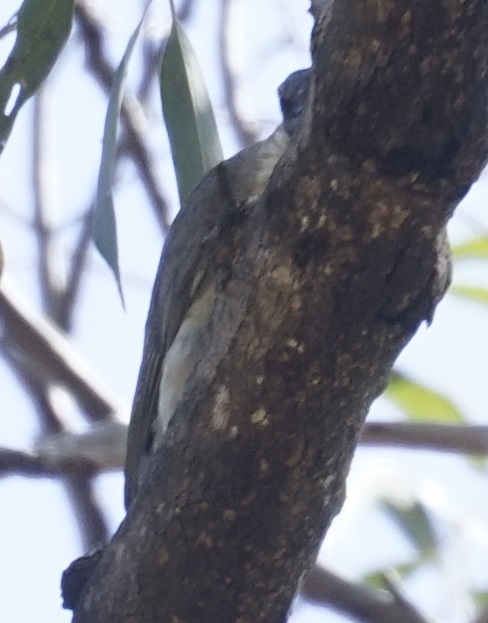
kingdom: Animalia
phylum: Chordata
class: Aves
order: Passeriformes
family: Meliphagidae
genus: Philemon
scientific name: Philemon corniculatus
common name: Noisy friarbird
